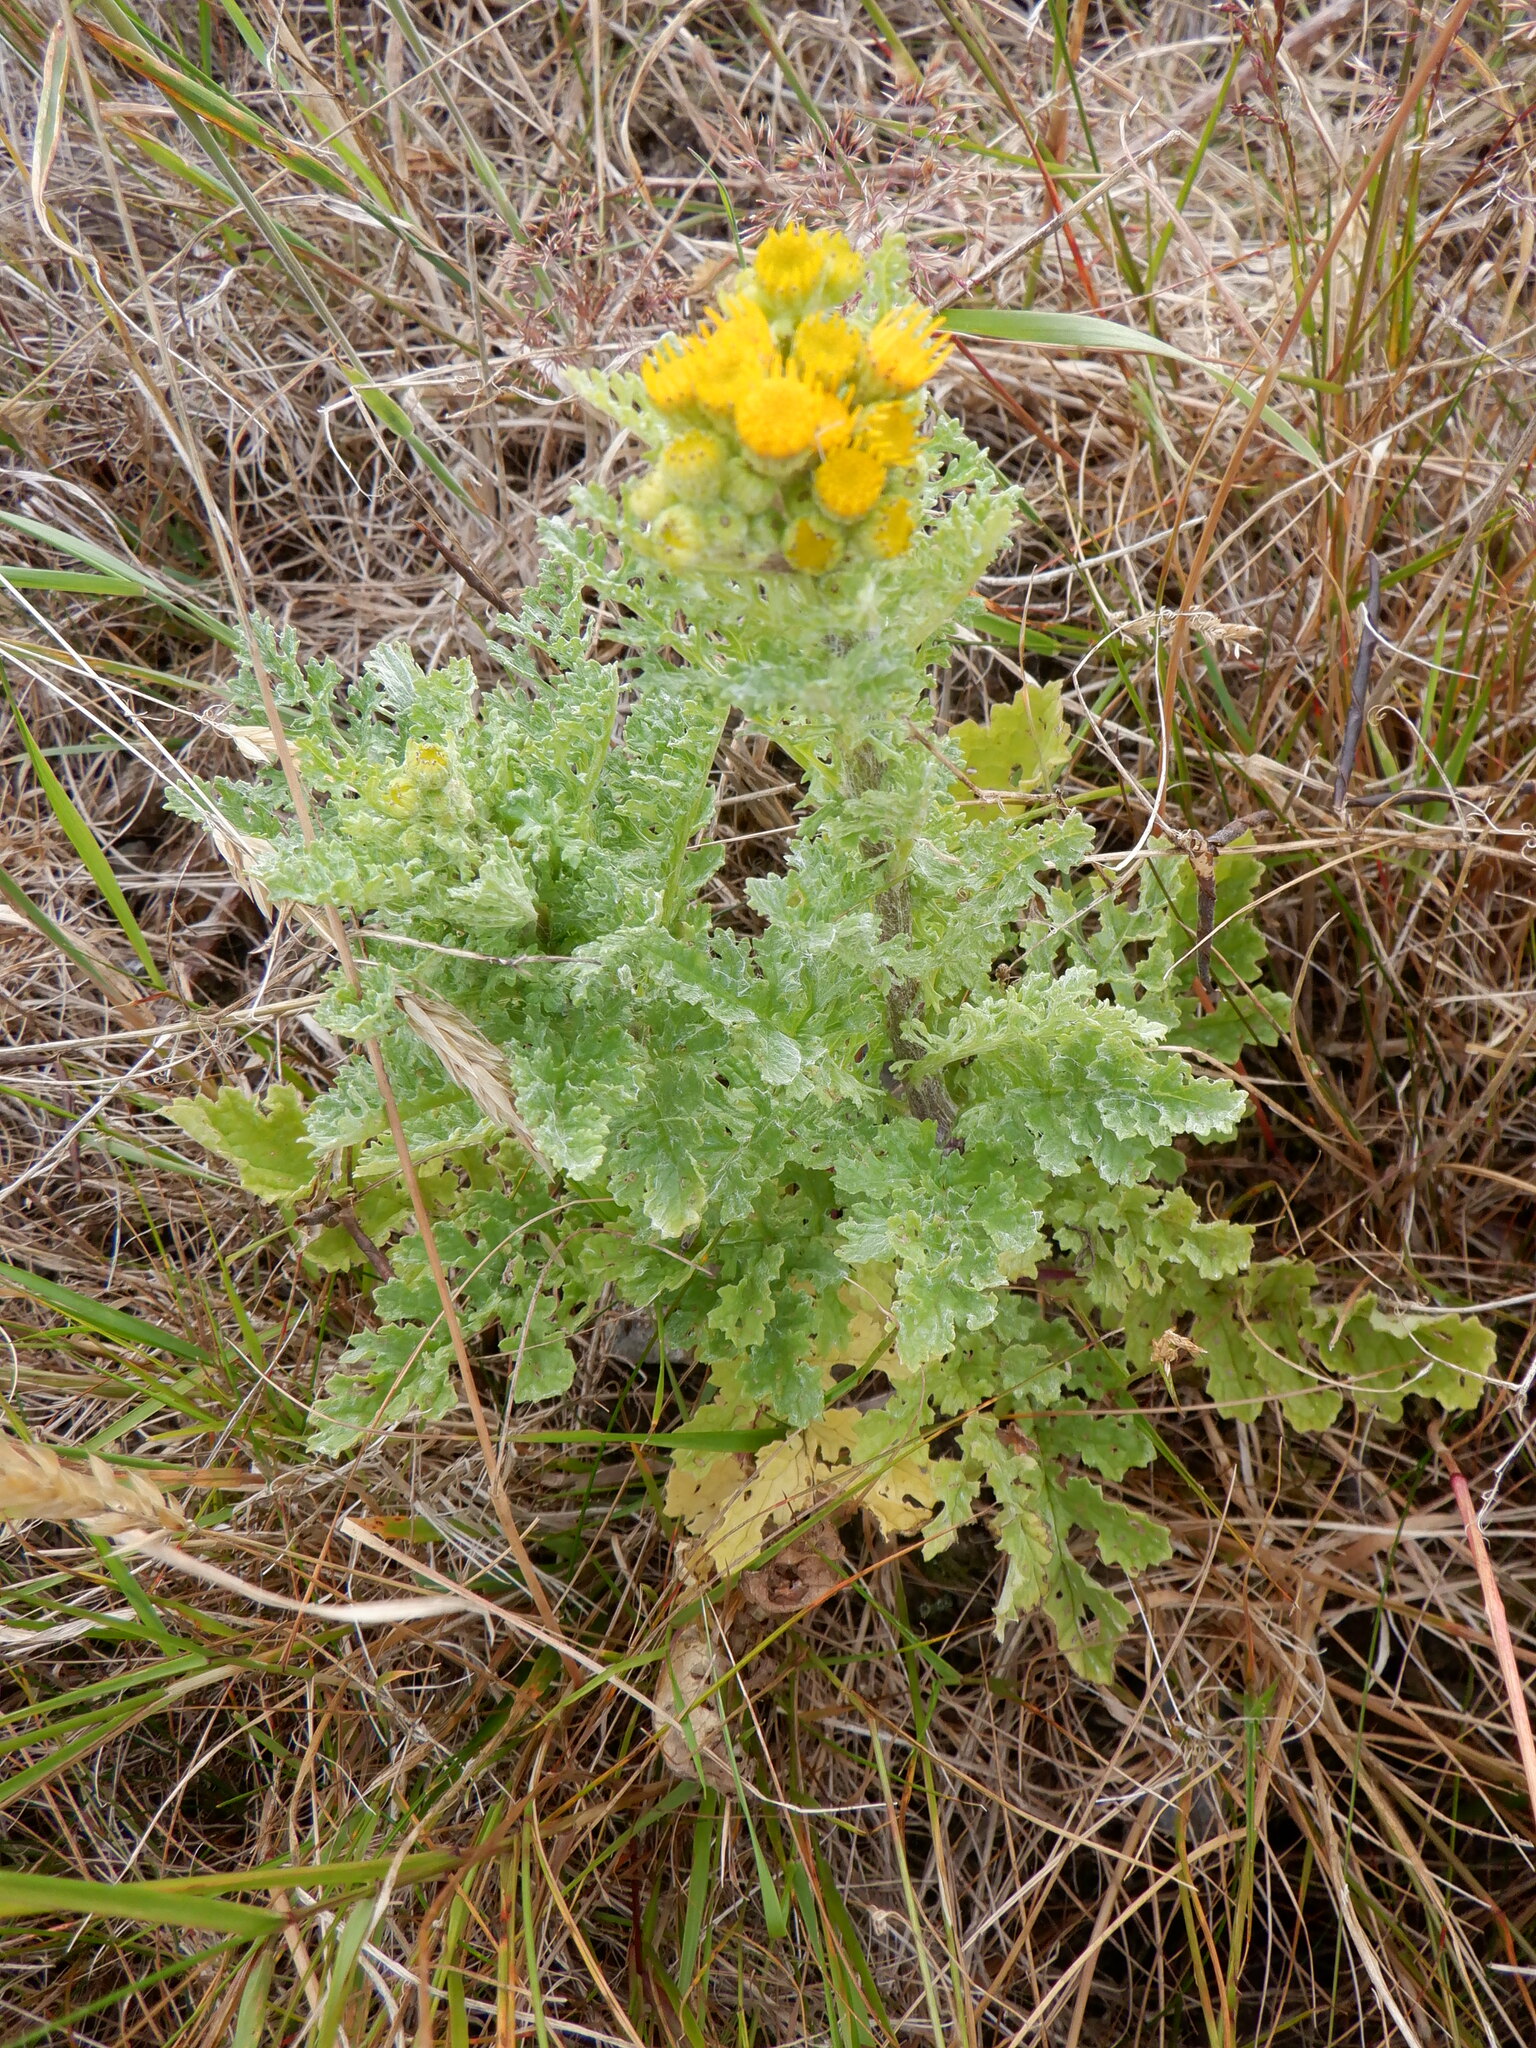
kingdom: Plantae
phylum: Tracheophyta
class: Magnoliopsida
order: Asterales
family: Asteraceae
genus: Jacobaea
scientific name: Jacobaea vulgaris
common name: Stinking willie
